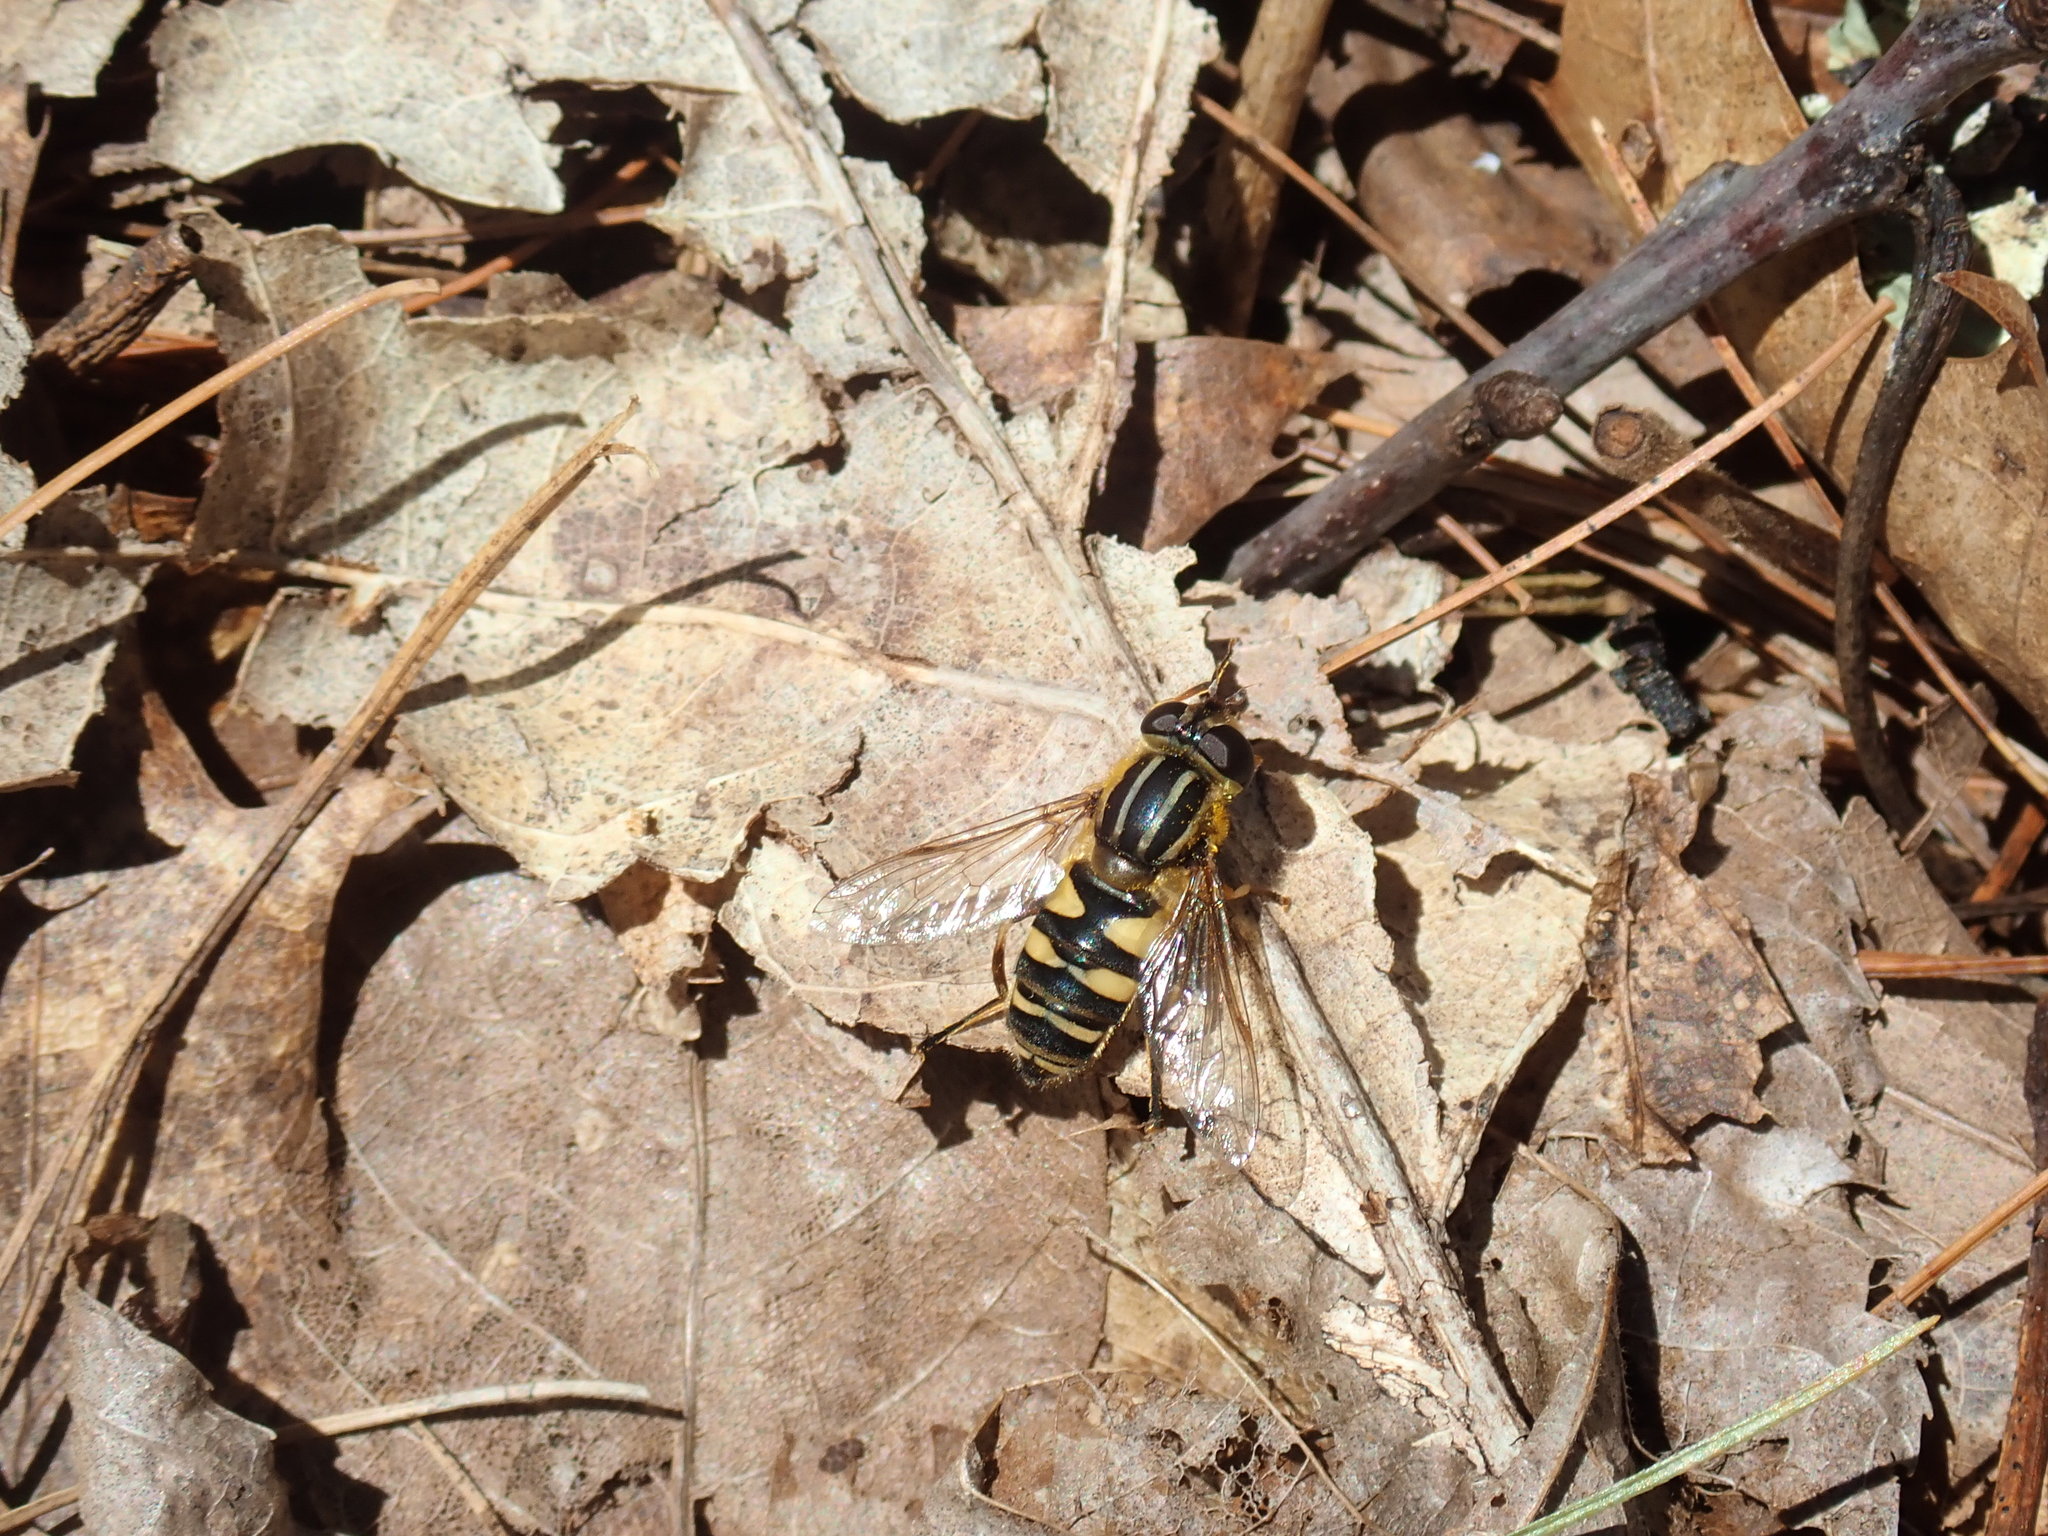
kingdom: Animalia
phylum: Arthropoda
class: Insecta
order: Diptera
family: Syrphidae
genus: Helophilus
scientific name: Helophilus fasciatus
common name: Narrow-headed marsh fly
